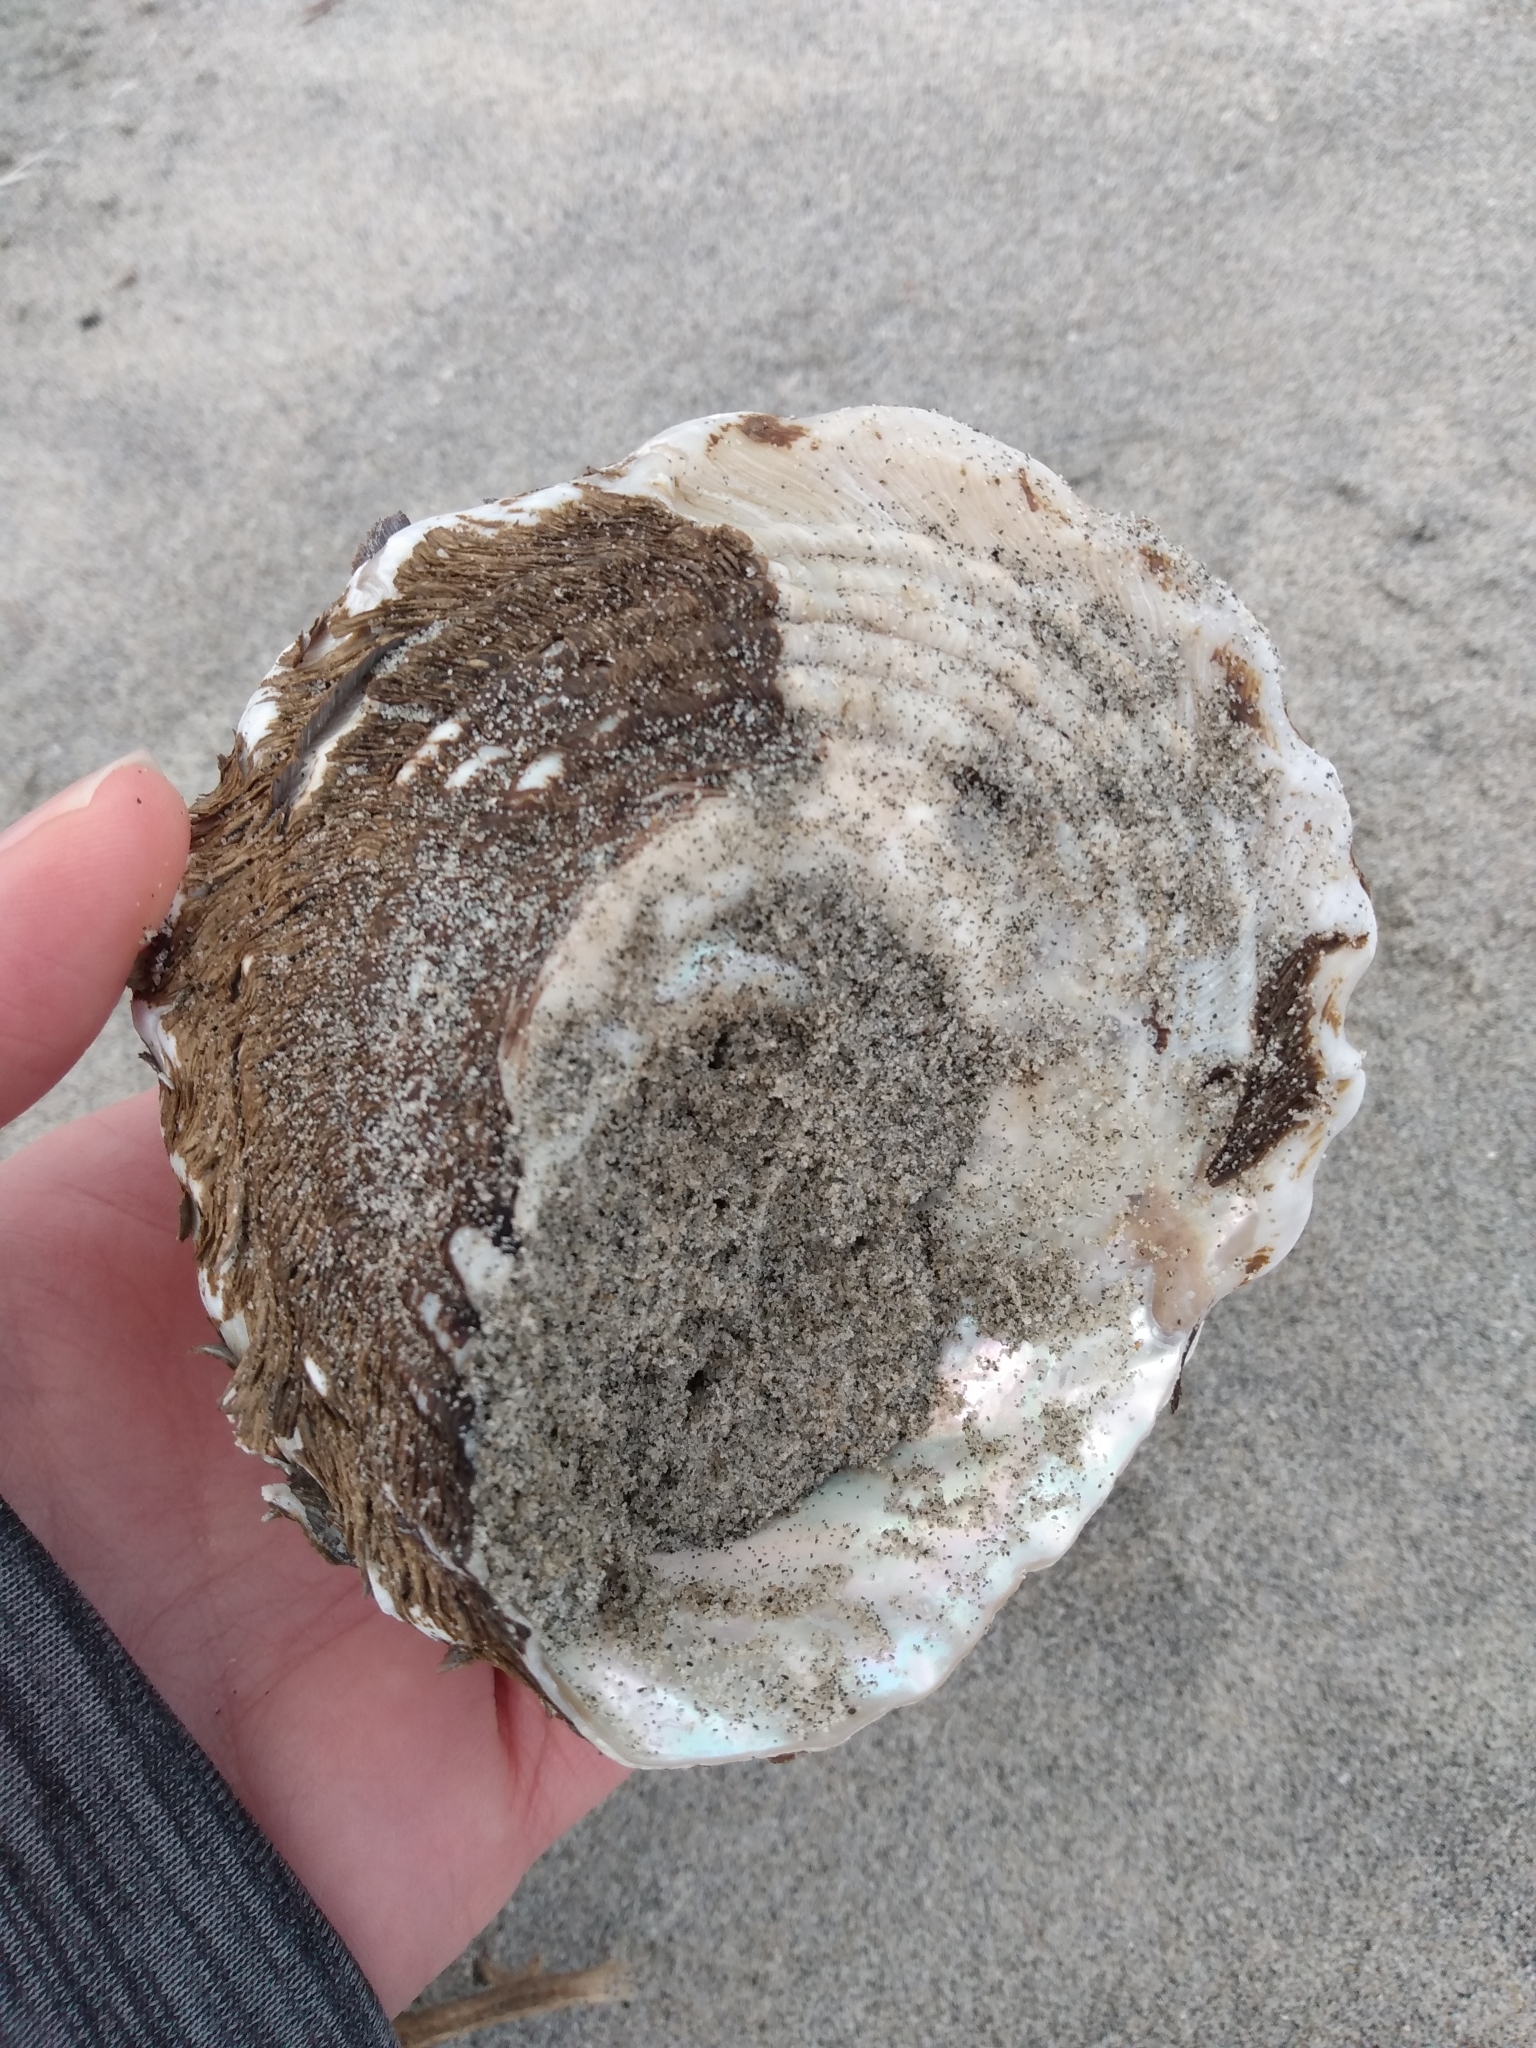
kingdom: Animalia
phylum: Mollusca
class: Gastropoda
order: Trochida
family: Turbinidae
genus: Megastraea
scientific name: Megastraea undosa
